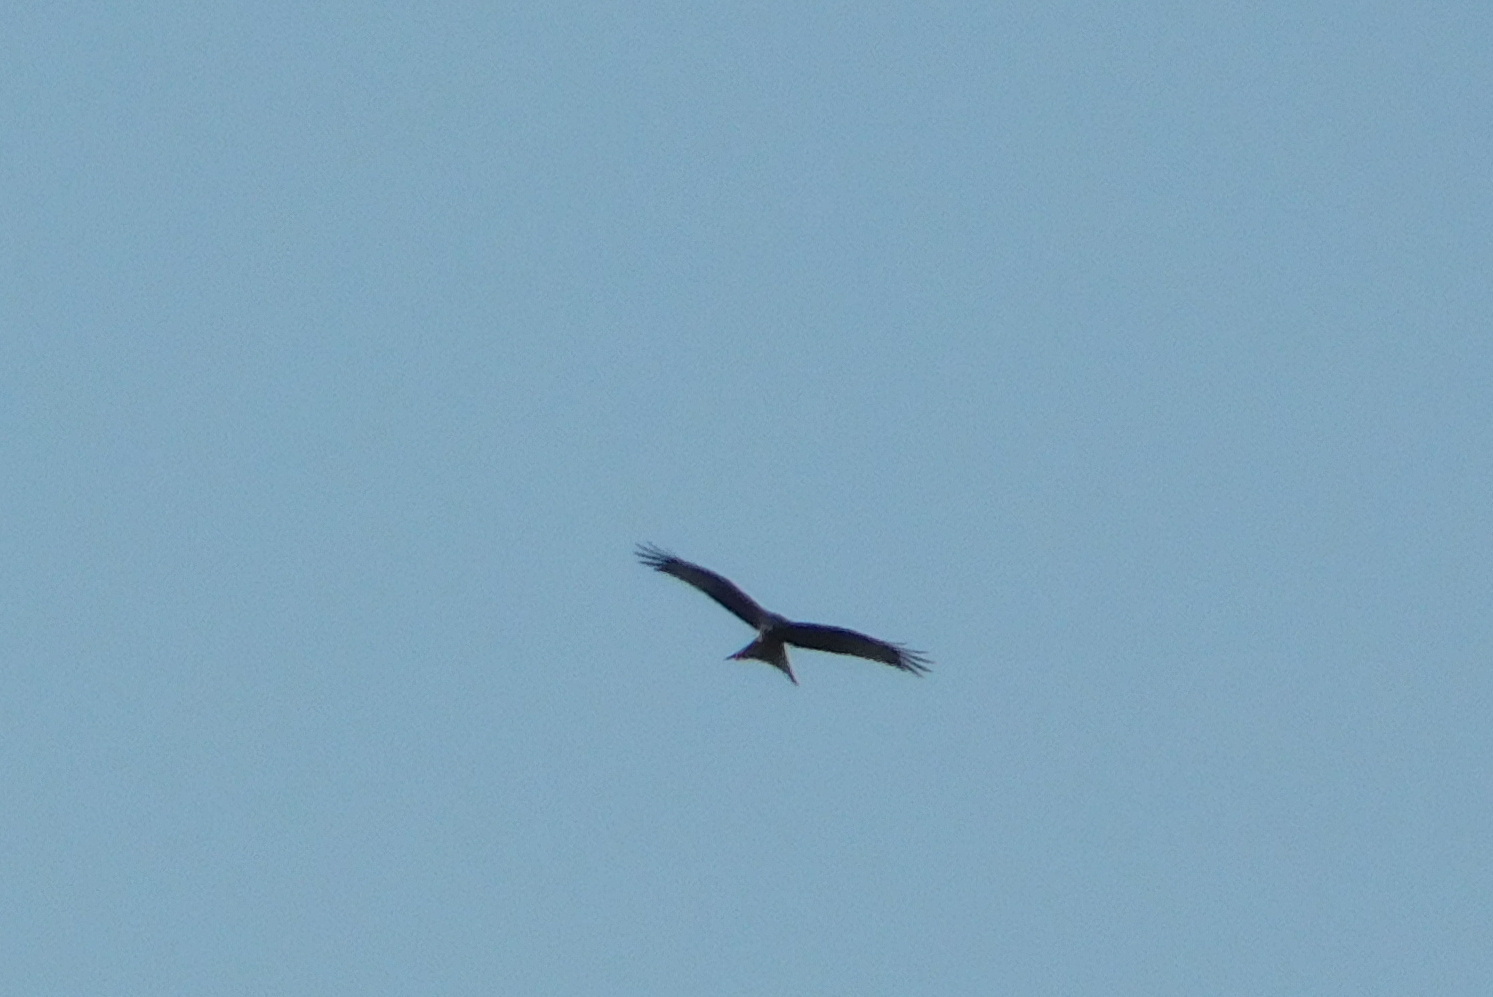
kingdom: Animalia
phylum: Chordata
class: Aves
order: Accipitriformes
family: Accipitridae
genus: Milvus
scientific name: Milvus milvus
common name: Red kite
